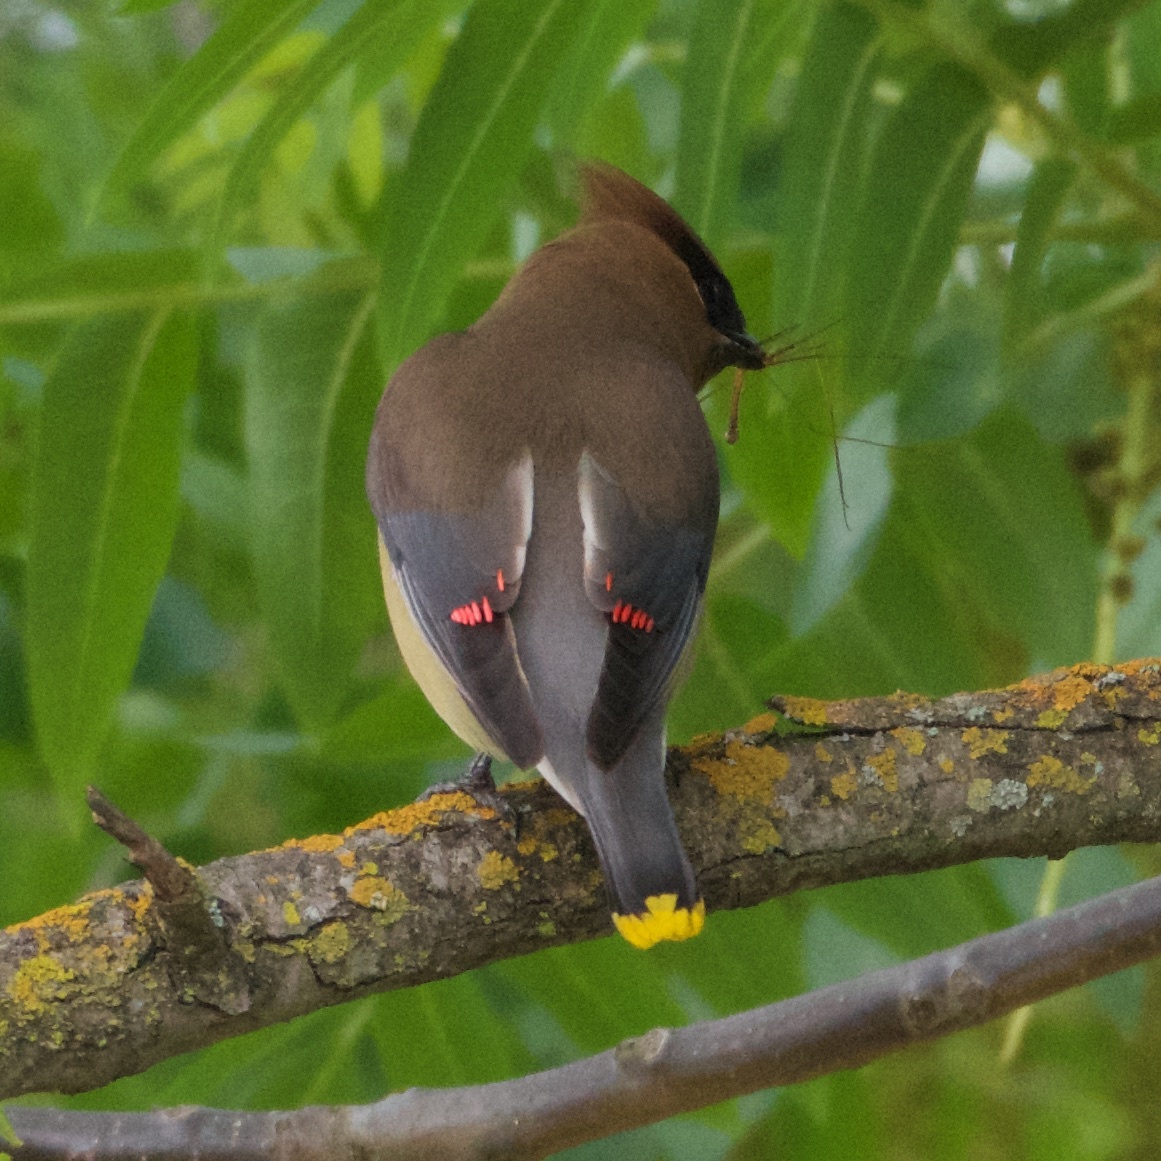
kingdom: Animalia
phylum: Chordata
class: Aves
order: Passeriformes
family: Bombycillidae
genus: Bombycilla
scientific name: Bombycilla cedrorum
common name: Cedar waxwing
